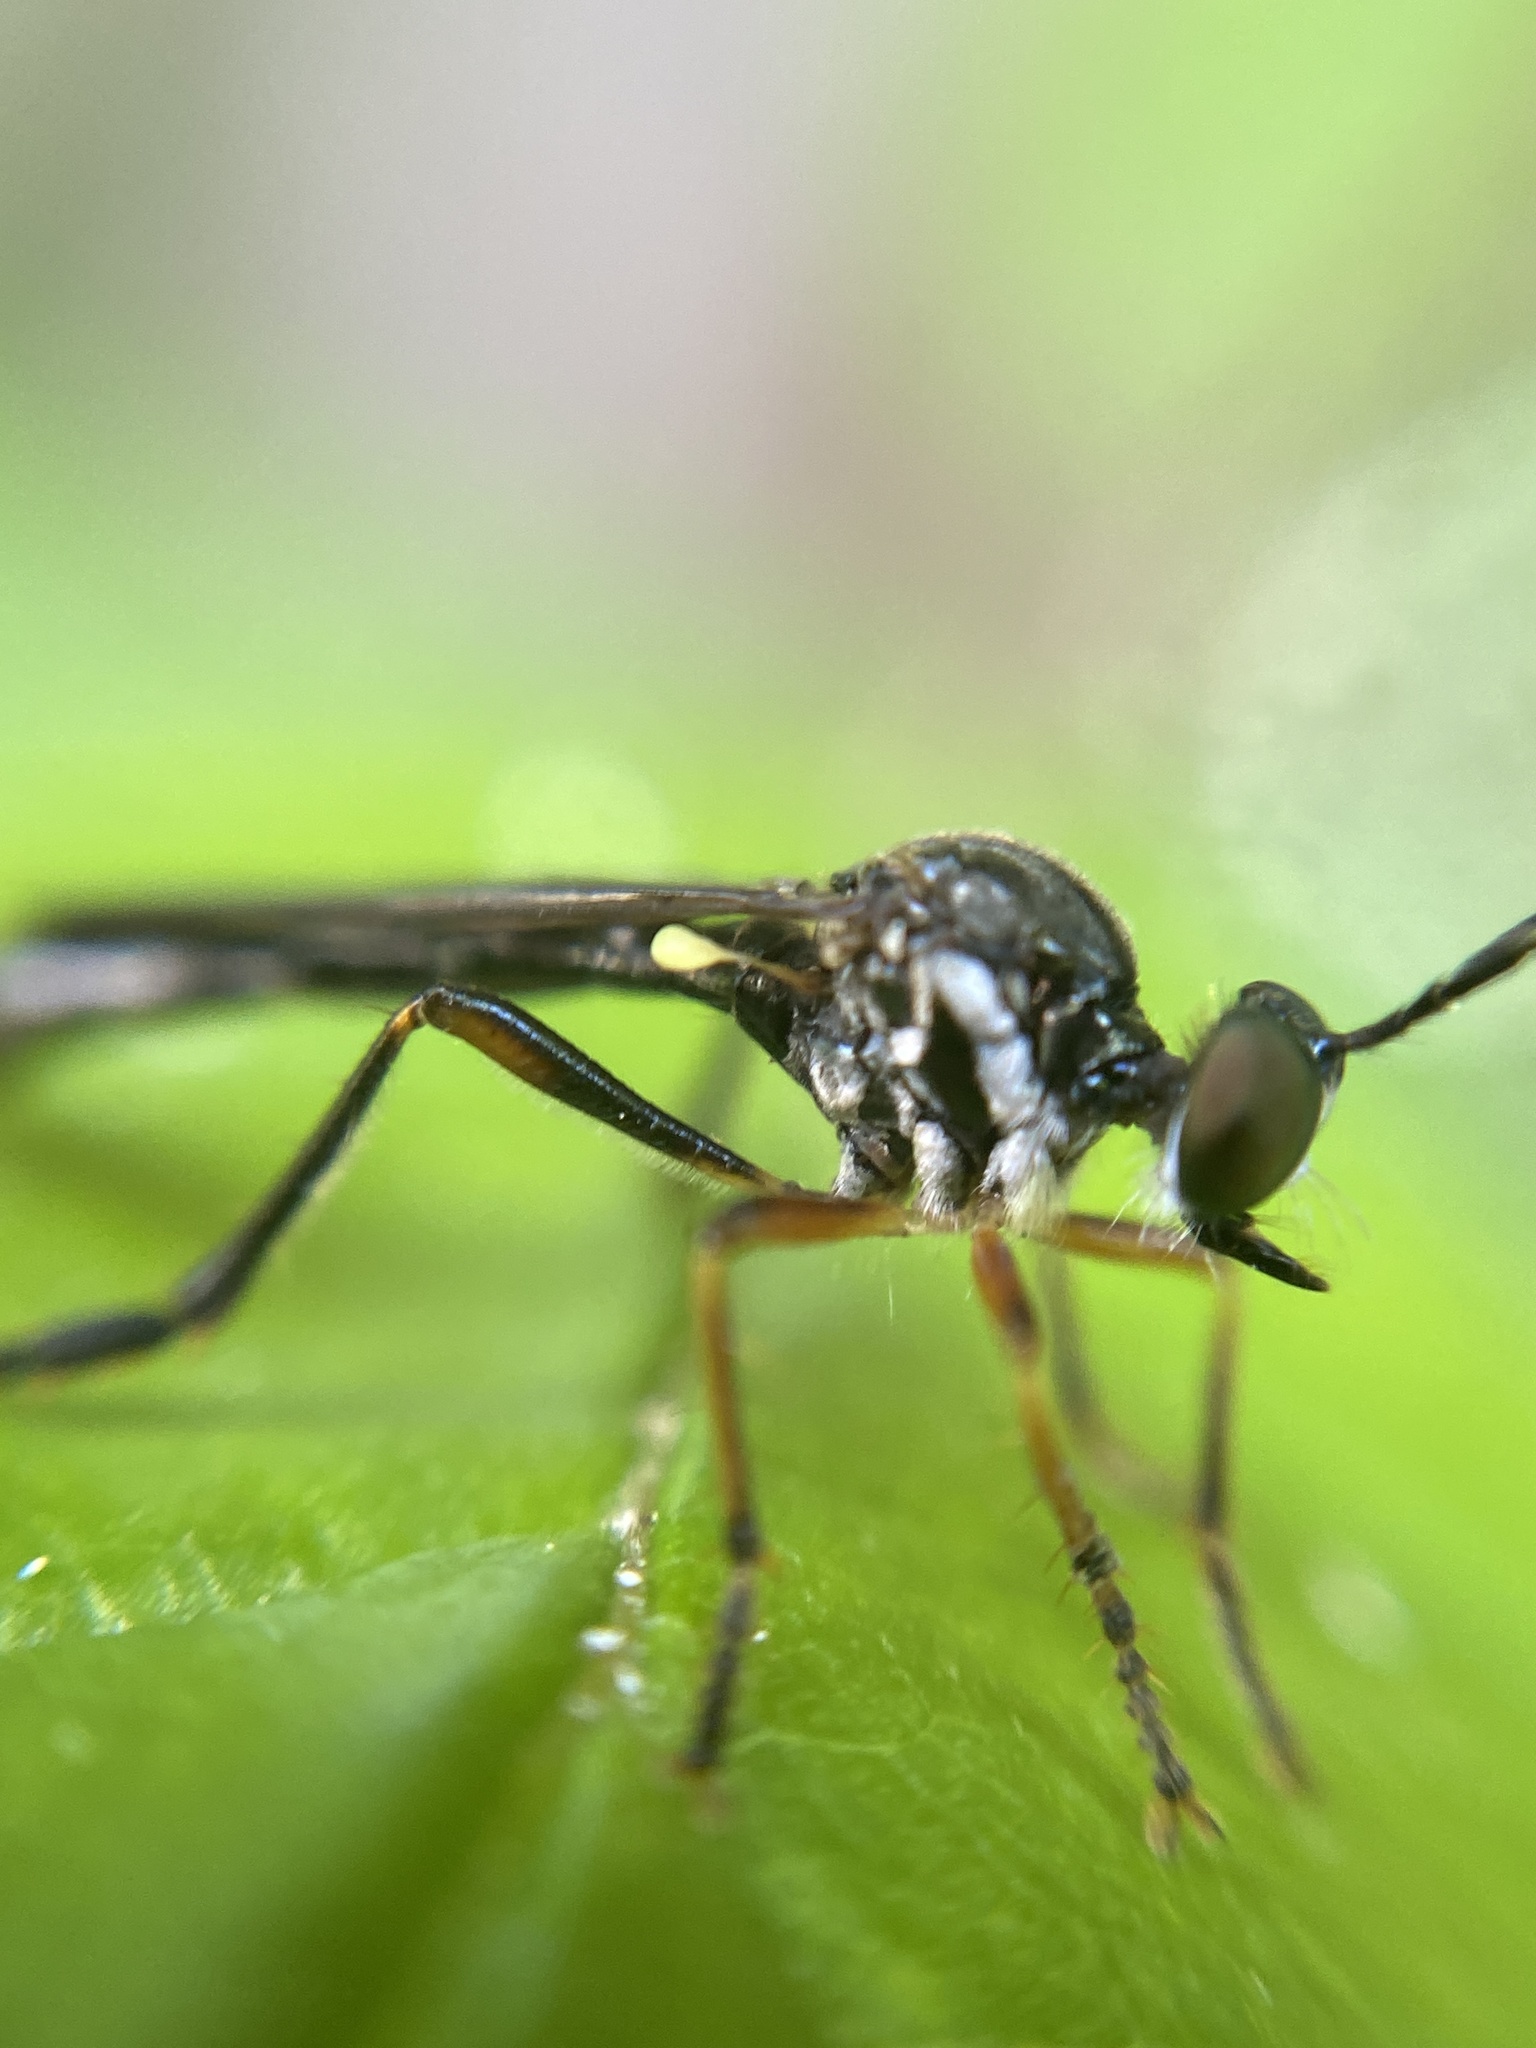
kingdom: Animalia
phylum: Arthropoda
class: Insecta
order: Diptera
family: Asilidae
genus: Dioctria
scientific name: Dioctria hyalipennis
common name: Stripe-legged robberfly
